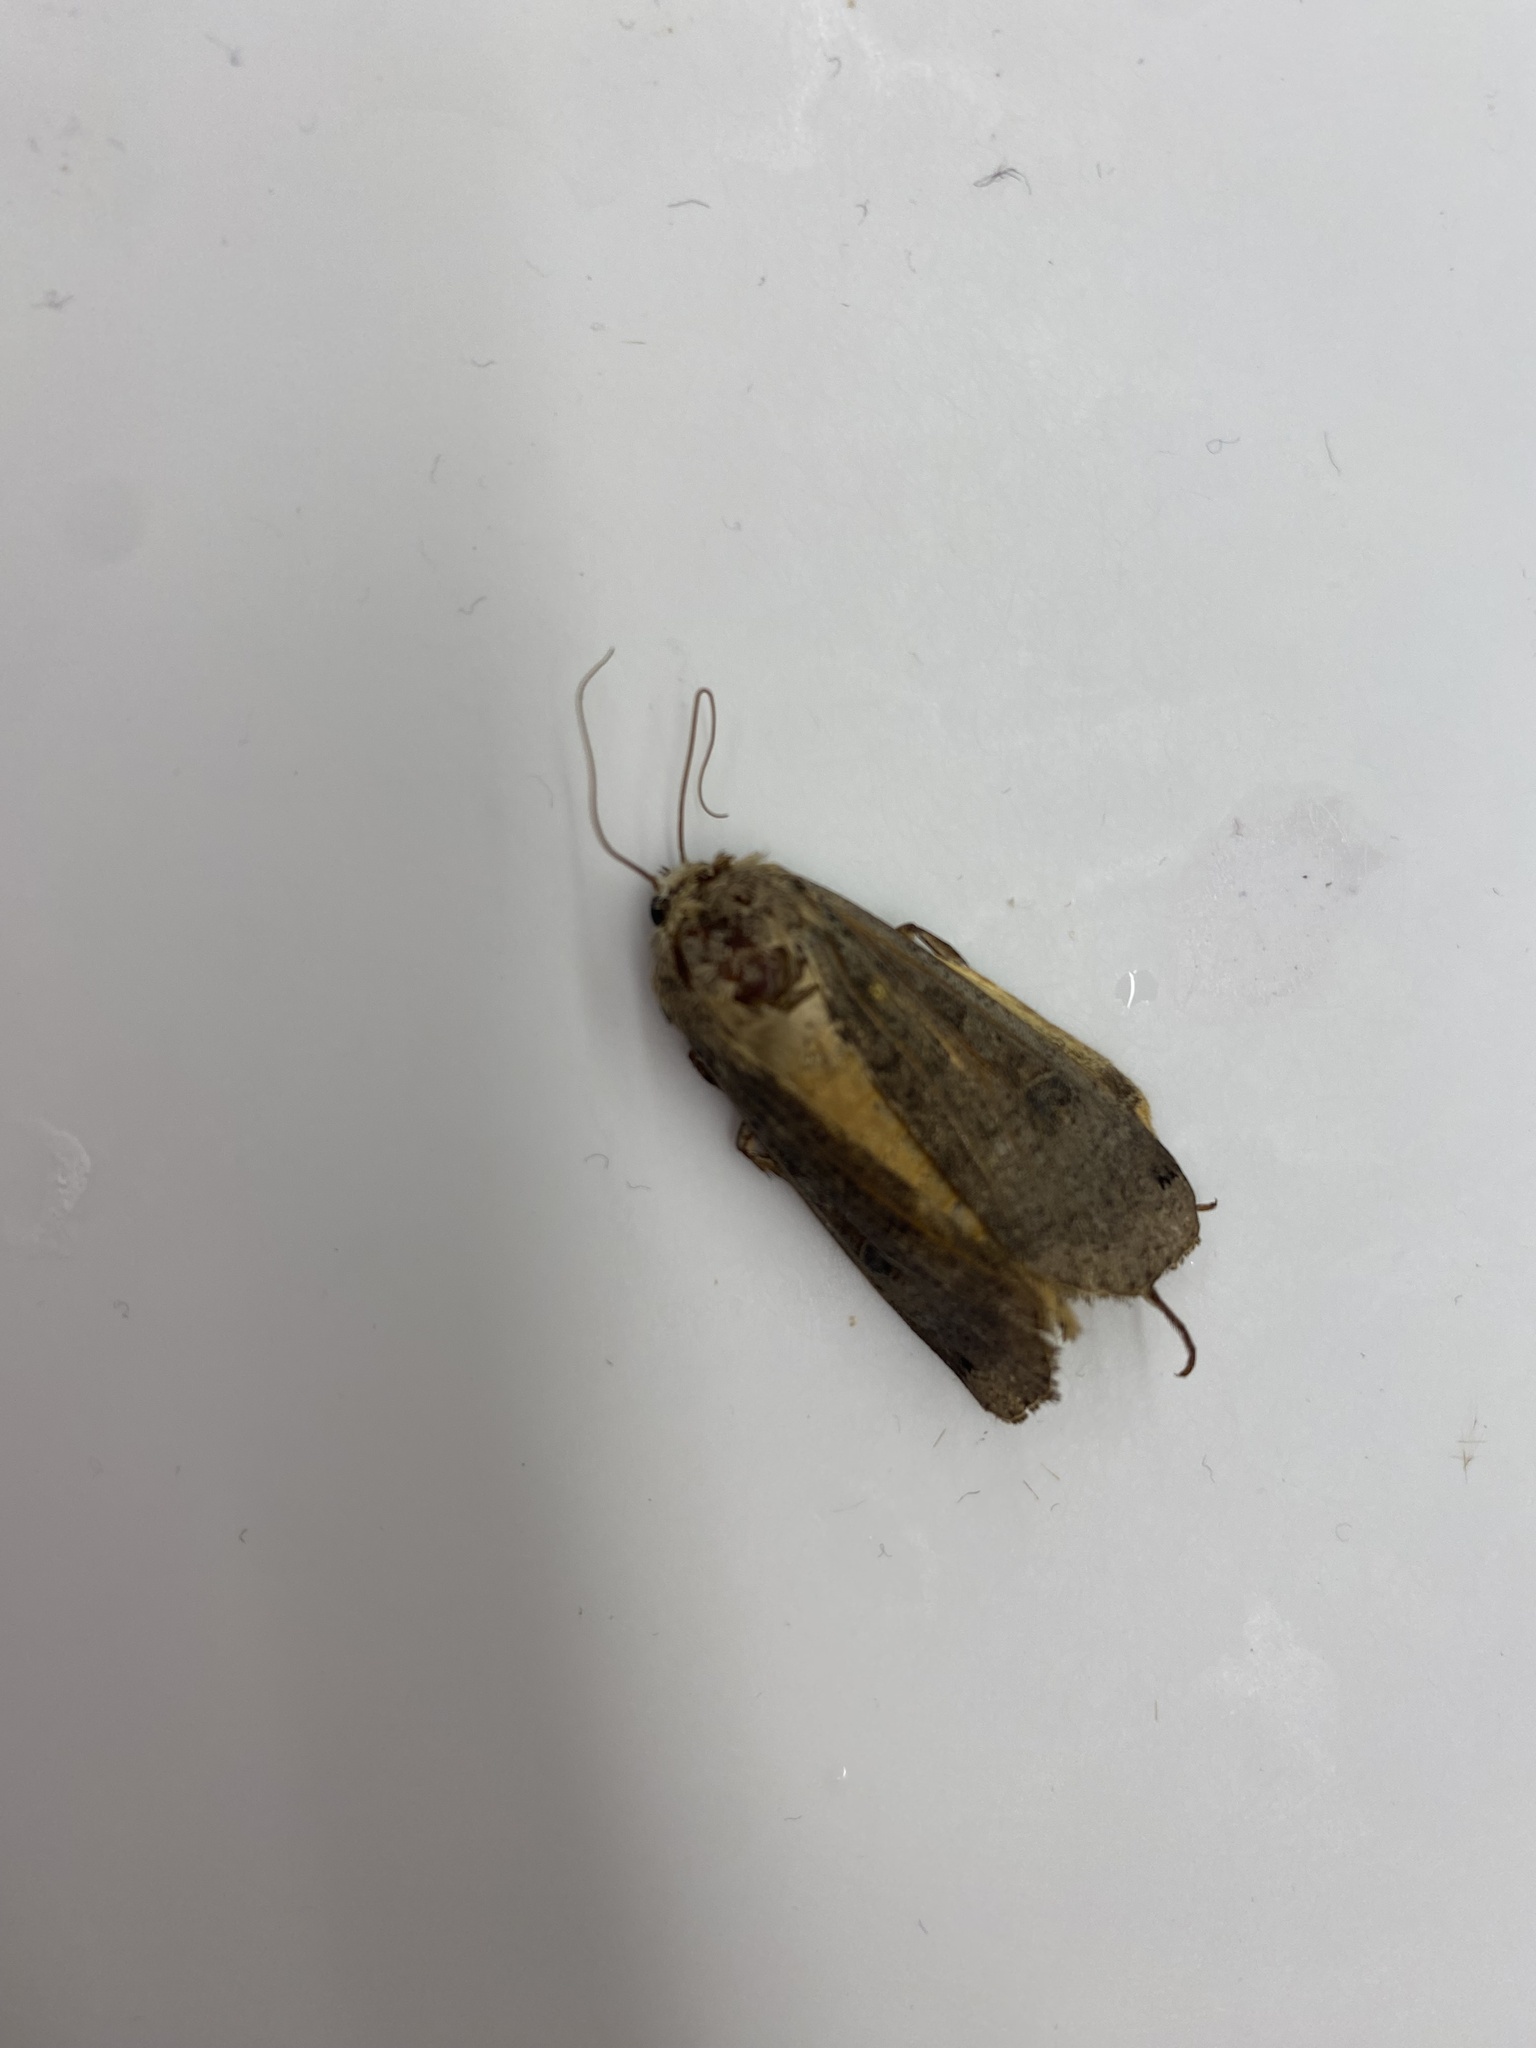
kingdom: Animalia
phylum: Arthropoda
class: Insecta
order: Lepidoptera
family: Noctuidae
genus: Noctua
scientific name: Noctua pronuba
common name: Large yellow underwing
